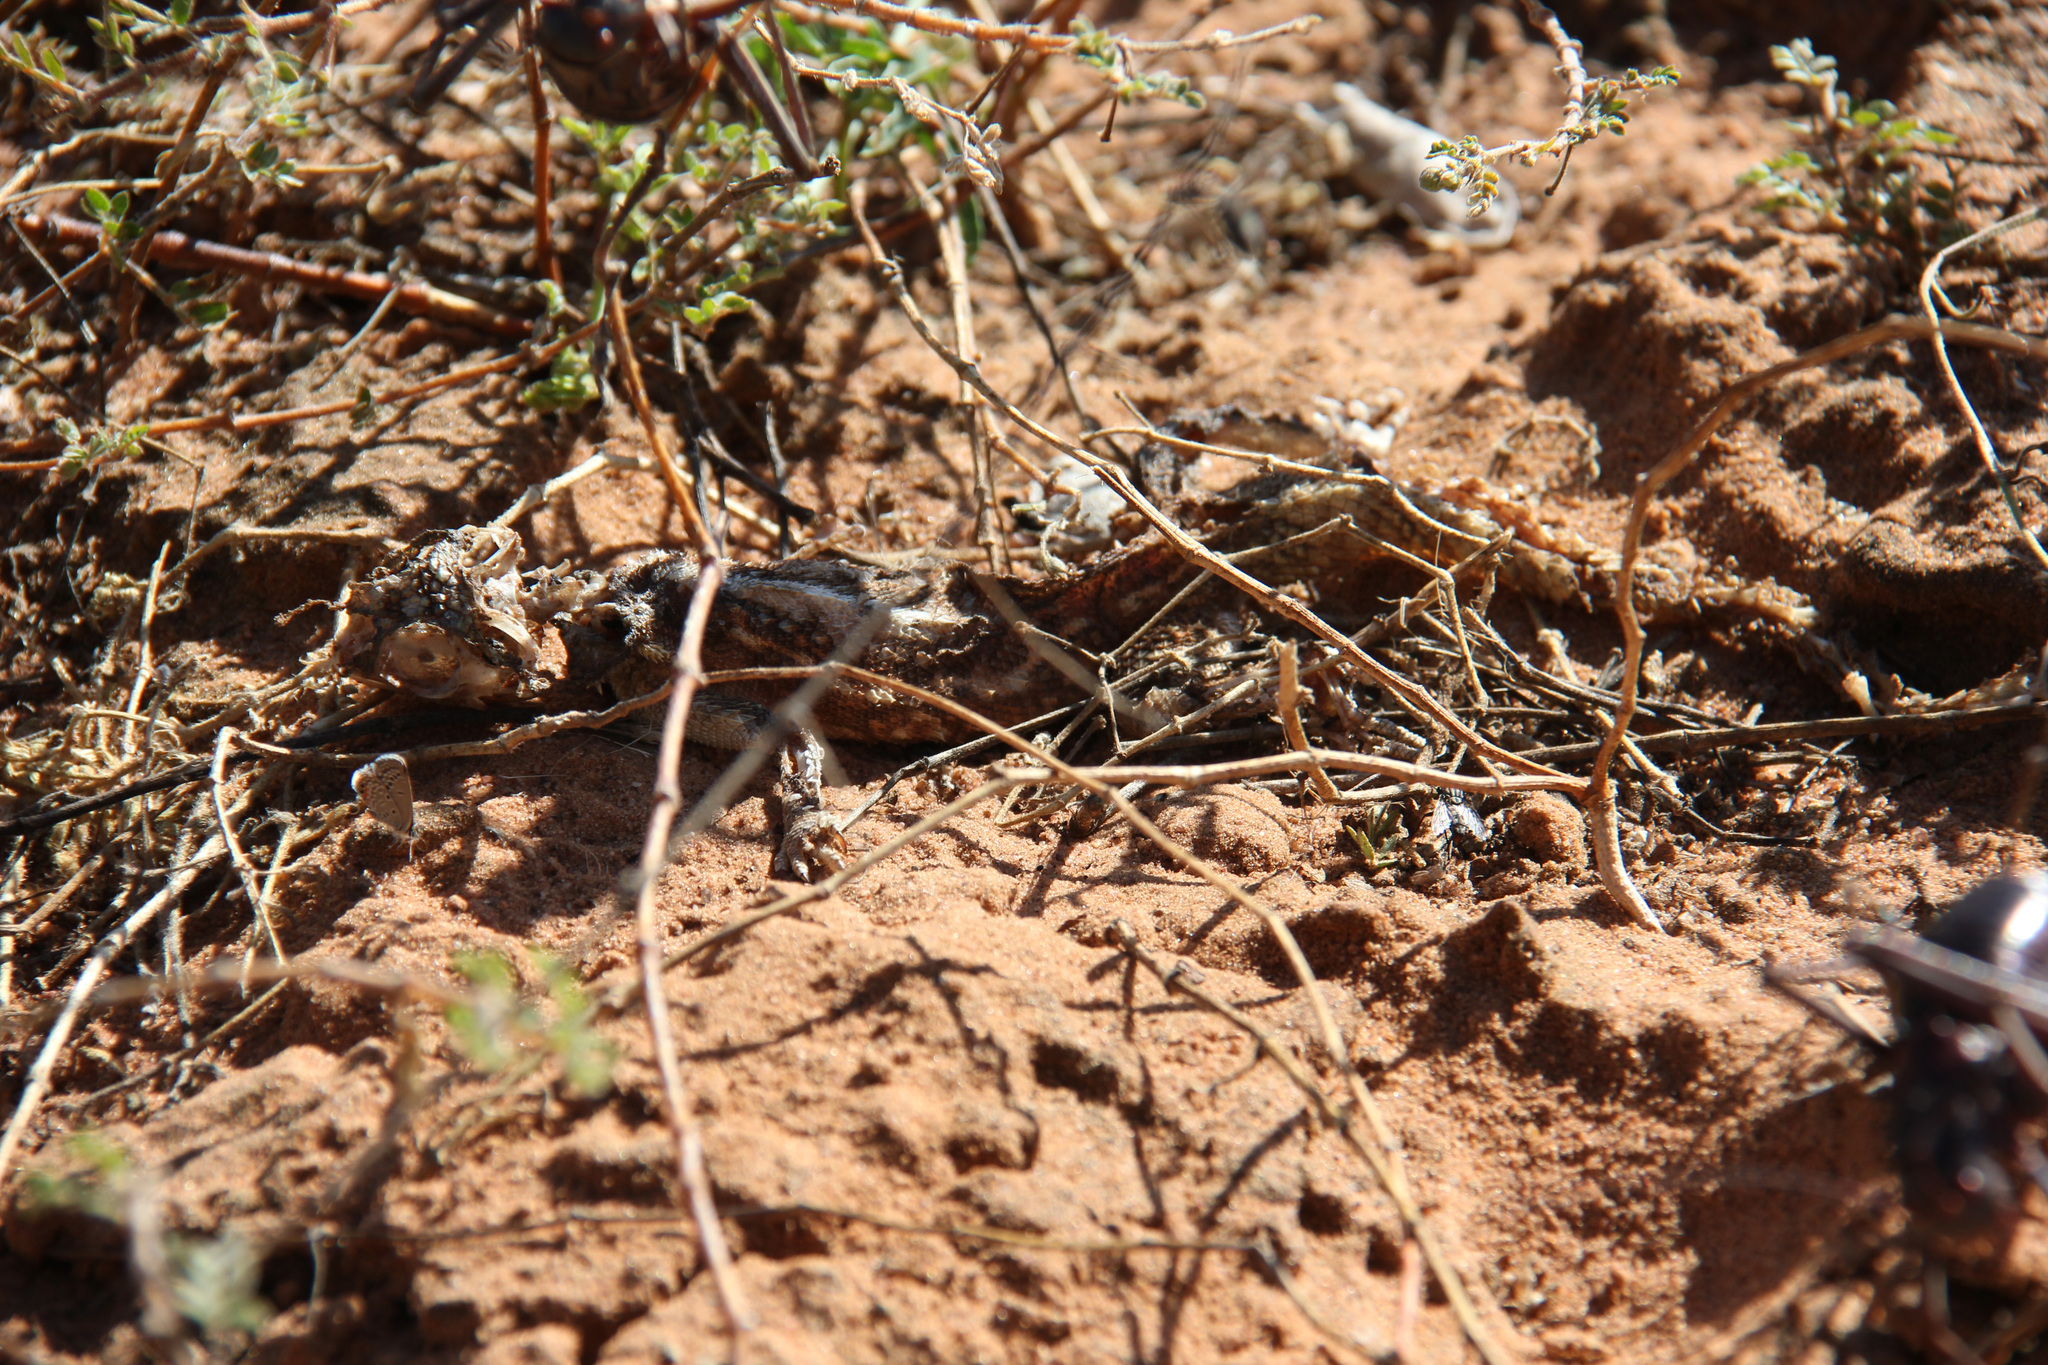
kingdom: Animalia
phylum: Chordata
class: Squamata
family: Agamidae
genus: Agama
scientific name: Agama aculeata
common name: Common ground agama
